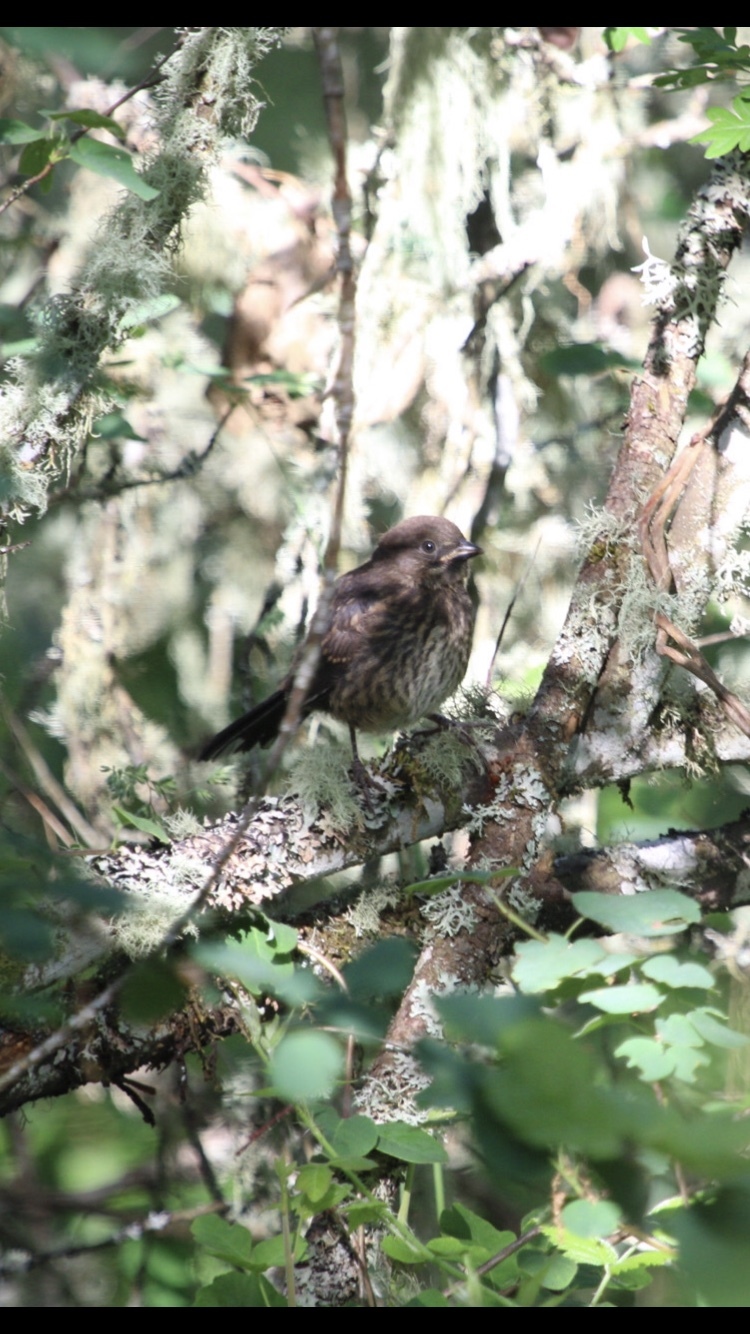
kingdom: Animalia
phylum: Chordata
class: Aves
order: Passeriformes
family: Passerellidae
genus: Pipilo
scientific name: Pipilo maculatus
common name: Spotted towhee
